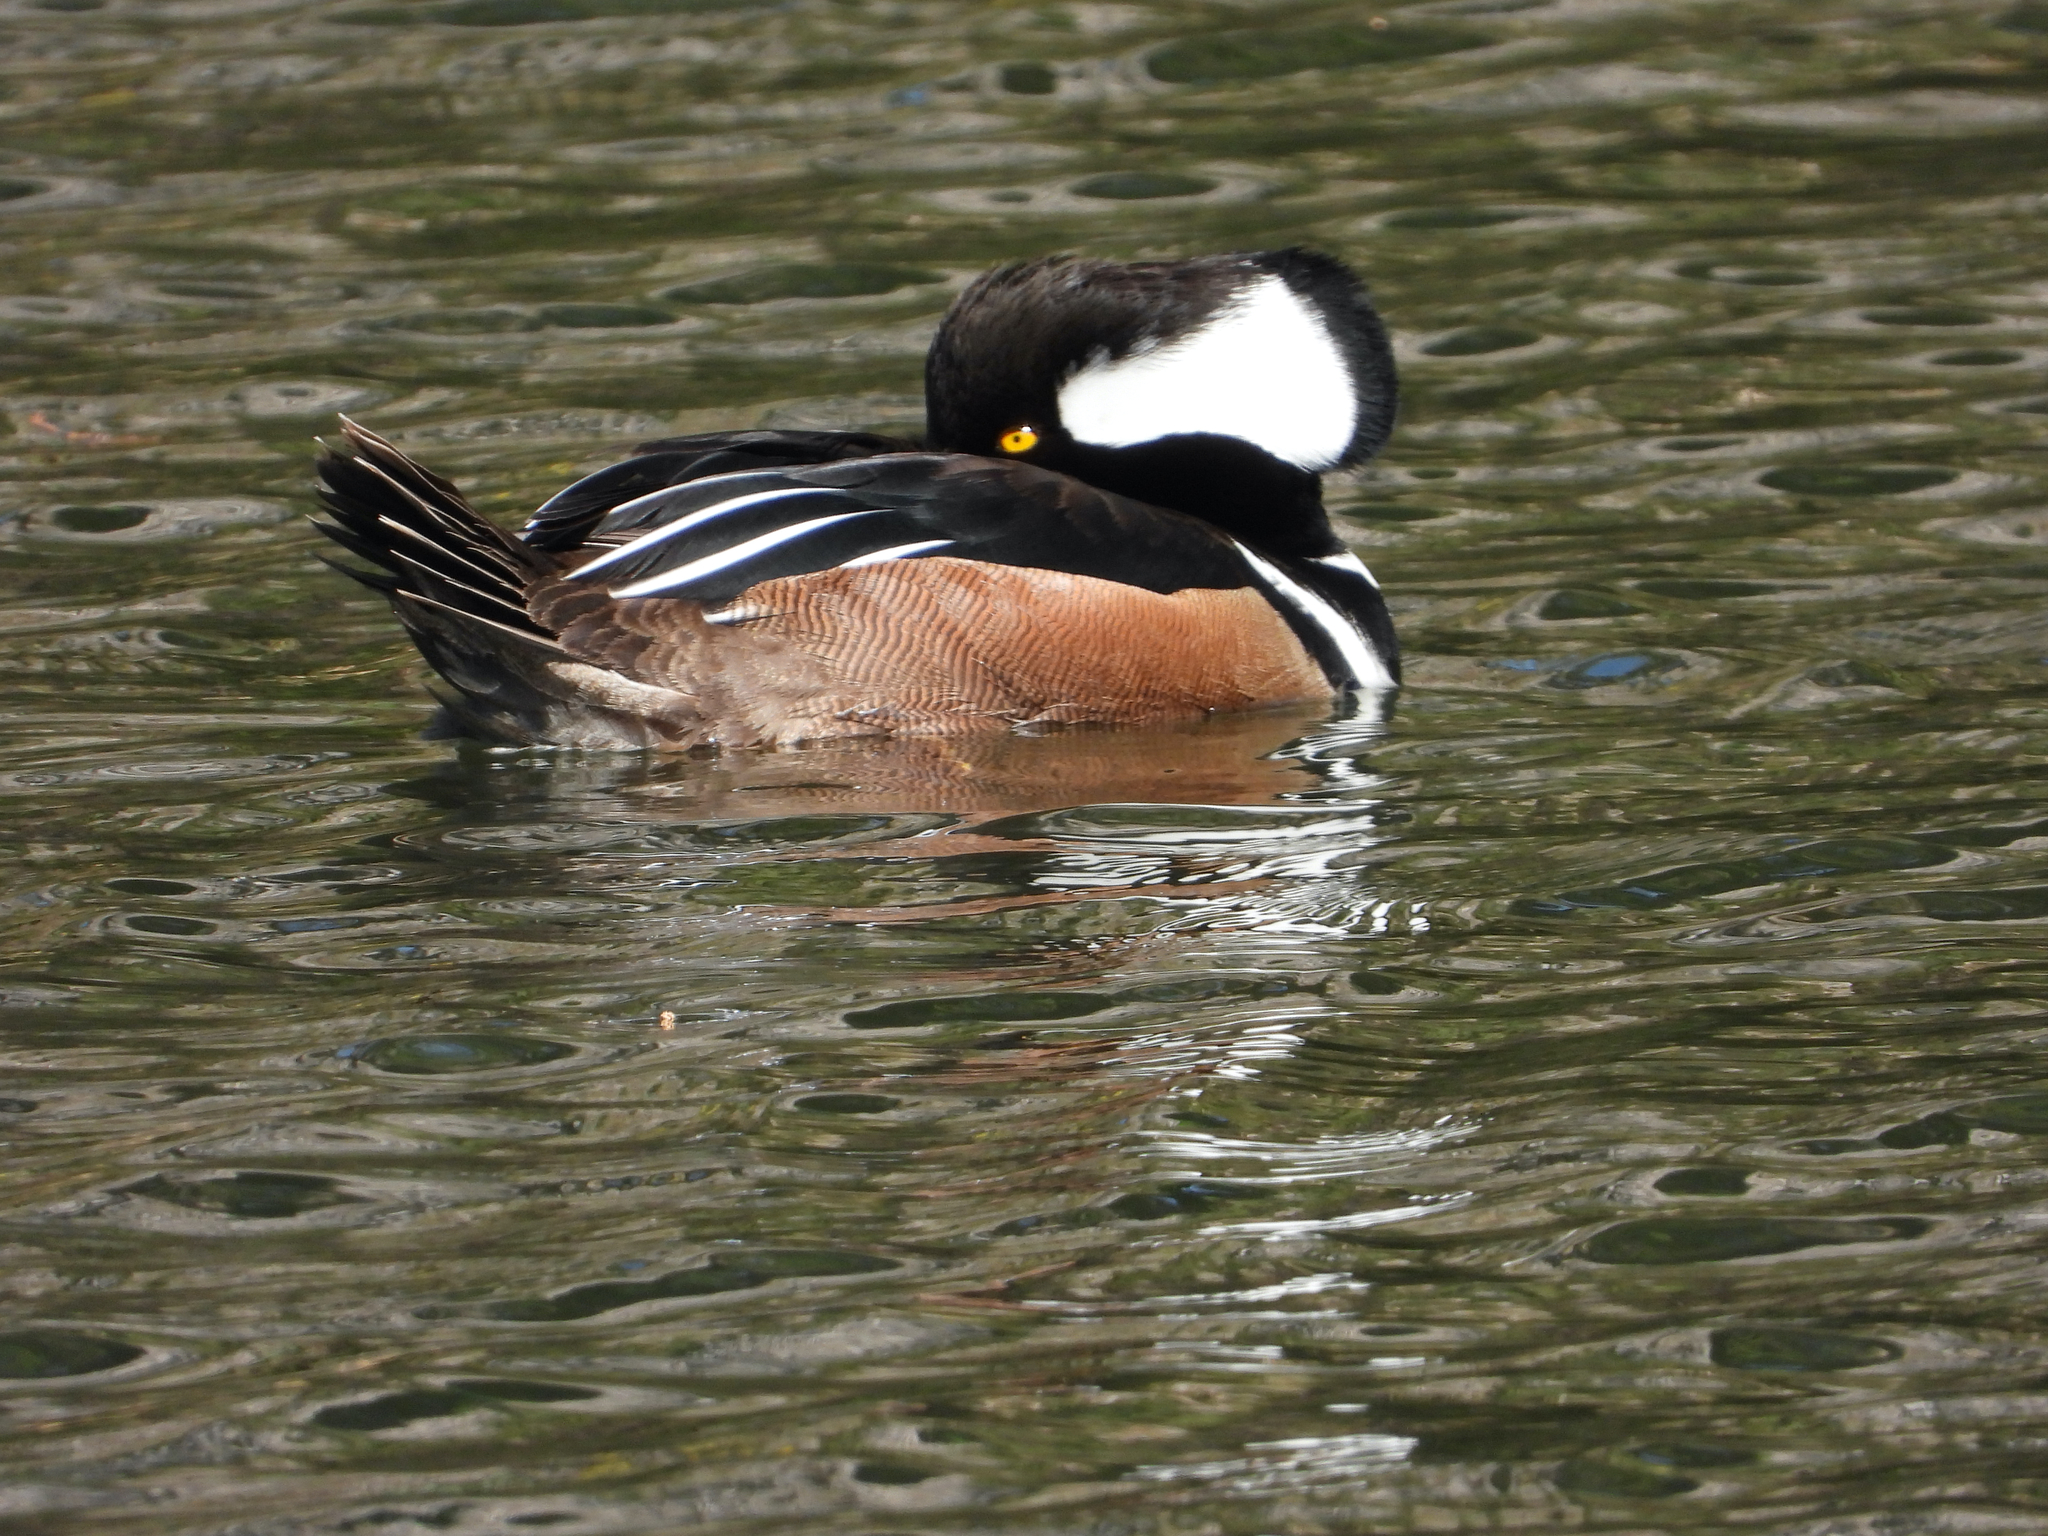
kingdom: Animalia
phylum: Chordata
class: Aves
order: Anseriformes
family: Anatidae
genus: Lophodytes
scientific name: Lophodytes cucullatus
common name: Hooded merganser
